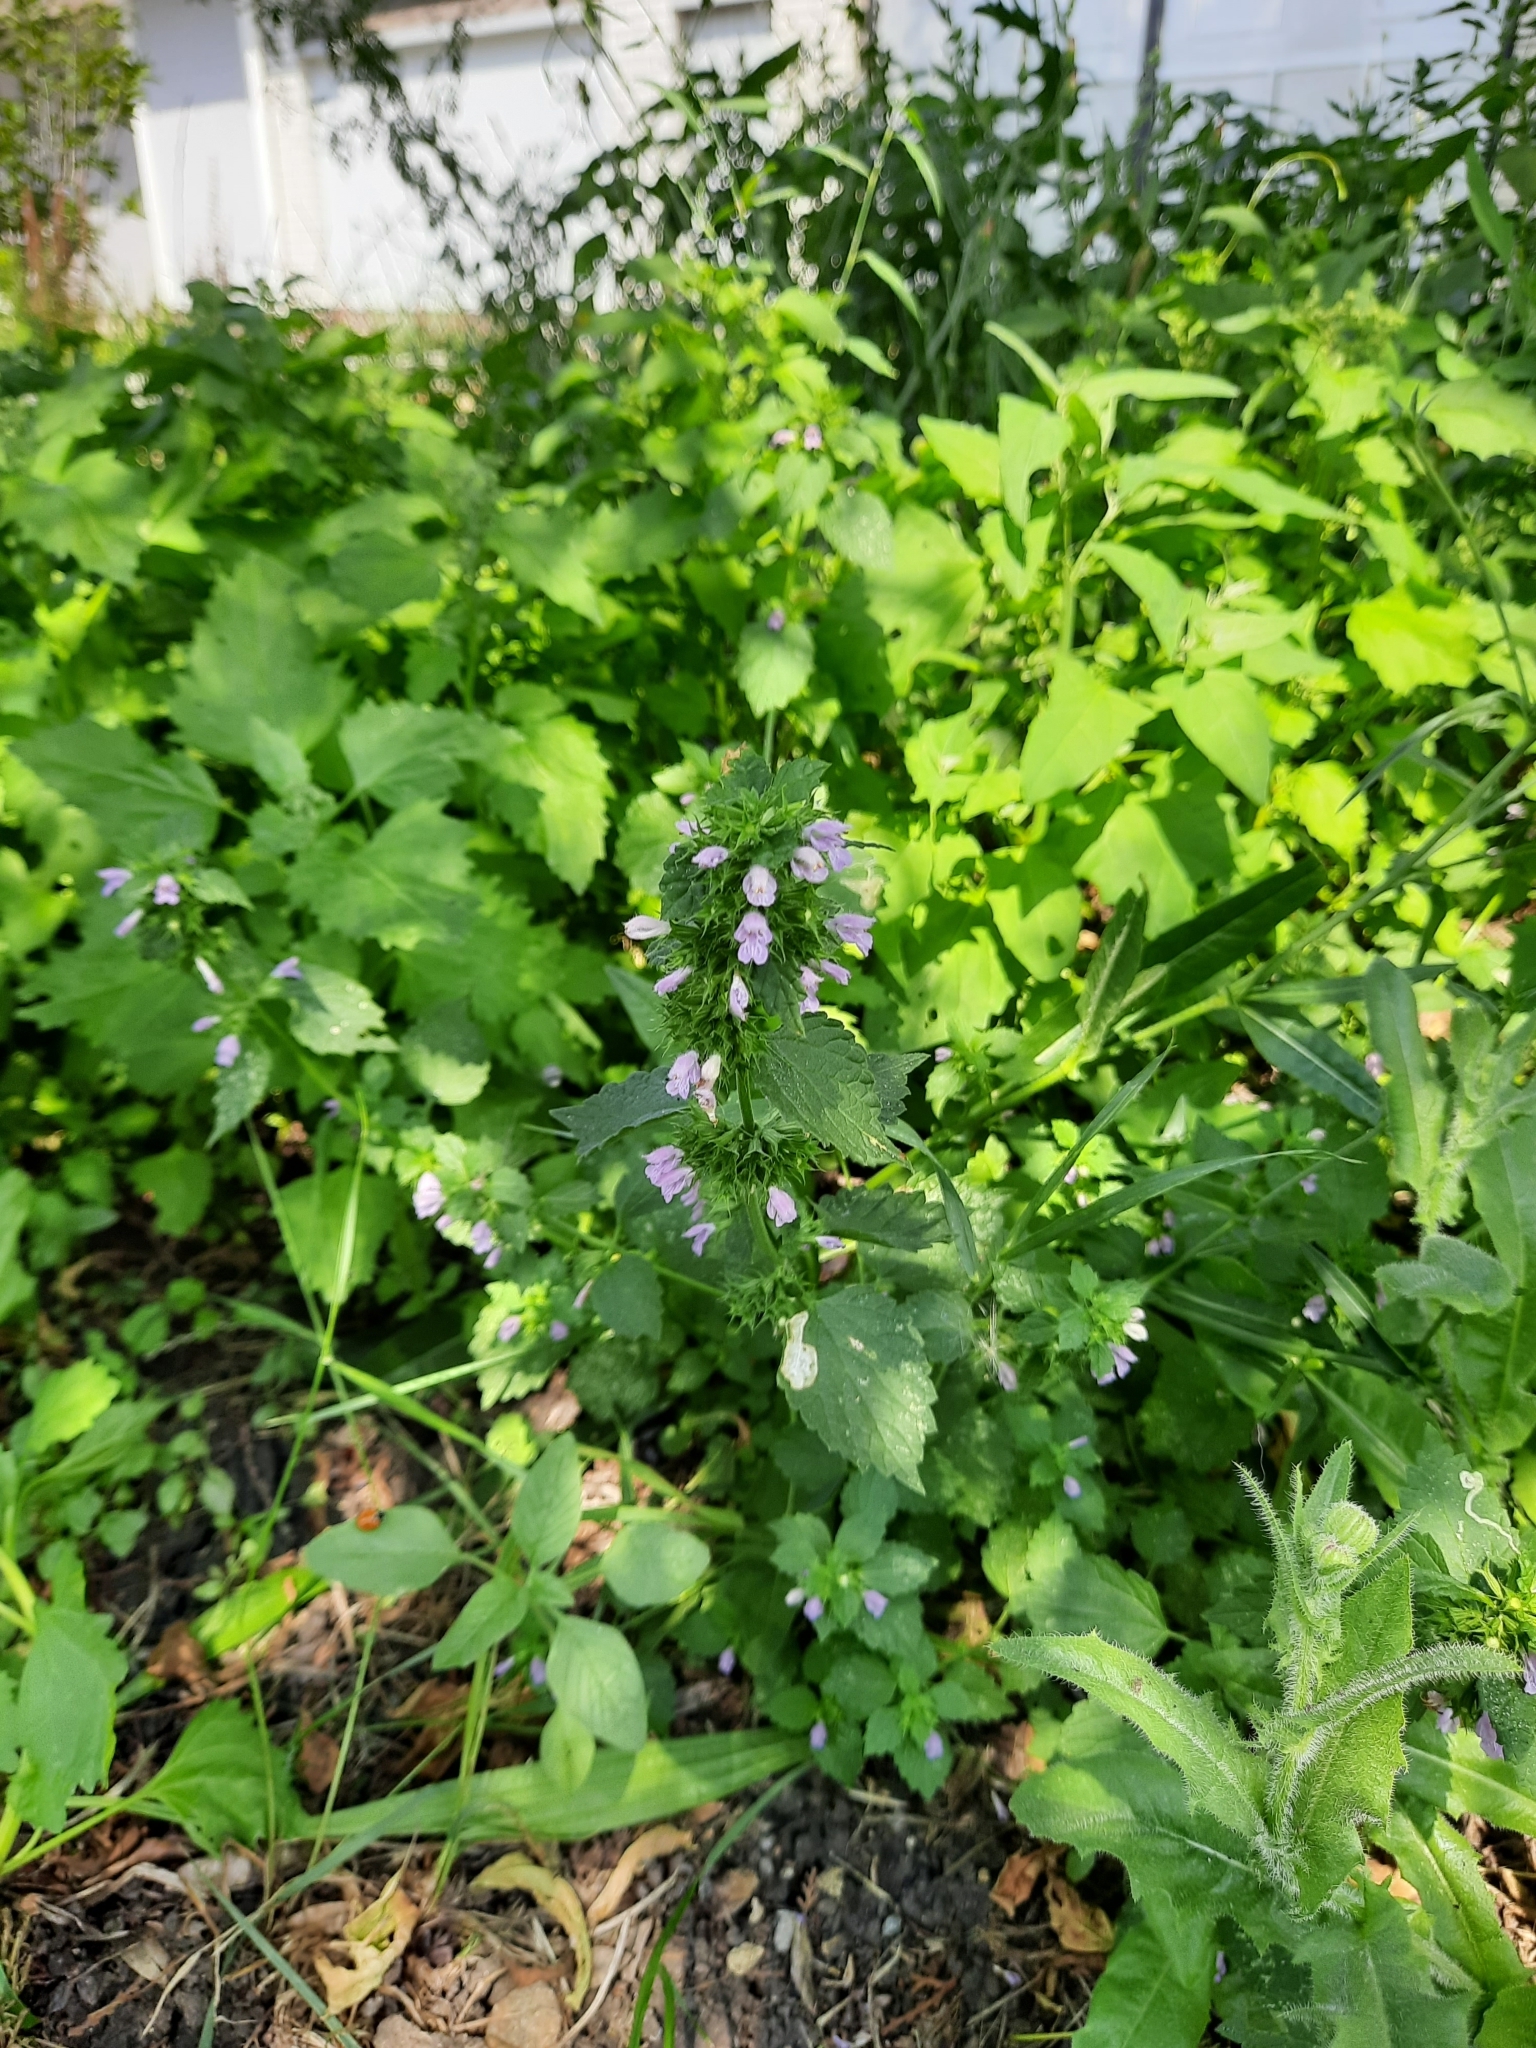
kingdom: Plantae
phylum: Tracheophyta
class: Magnoliopsida
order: Lamiales
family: Lamiaceae
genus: Ballota
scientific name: Ballota nigra
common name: Black horehound
